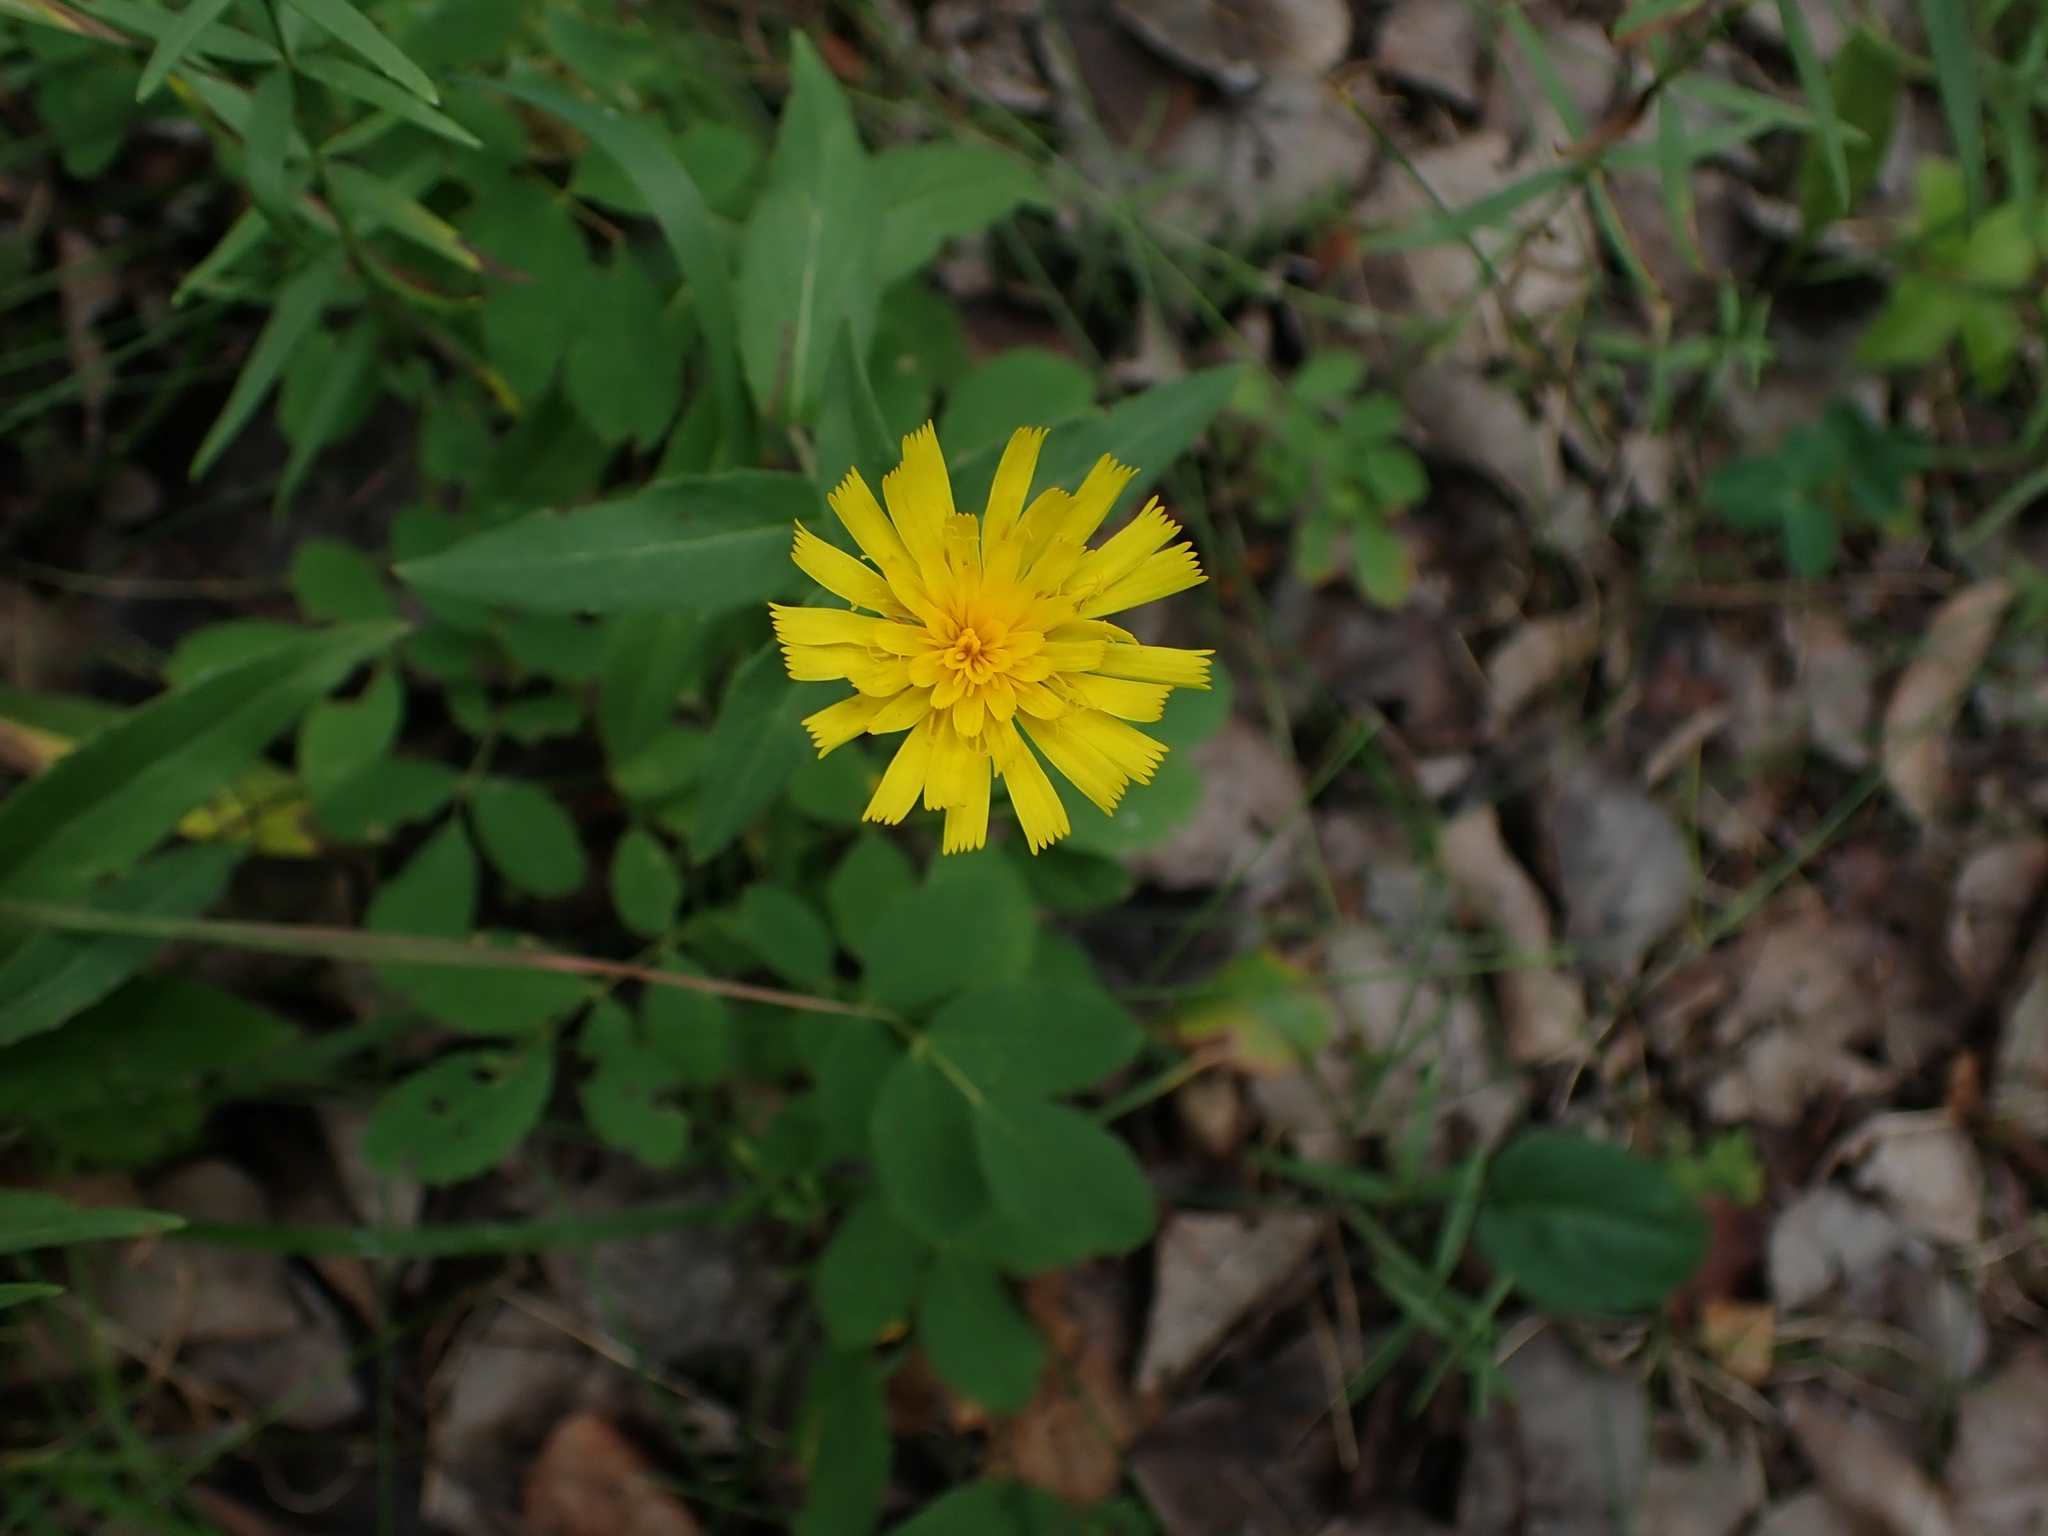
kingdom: Plantae
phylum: Tracheophyta
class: Magnoliopsida
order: Asterales
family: Asteraceae
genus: Hieracium
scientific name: Hieracium umbellatum
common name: Northern hawkweed
